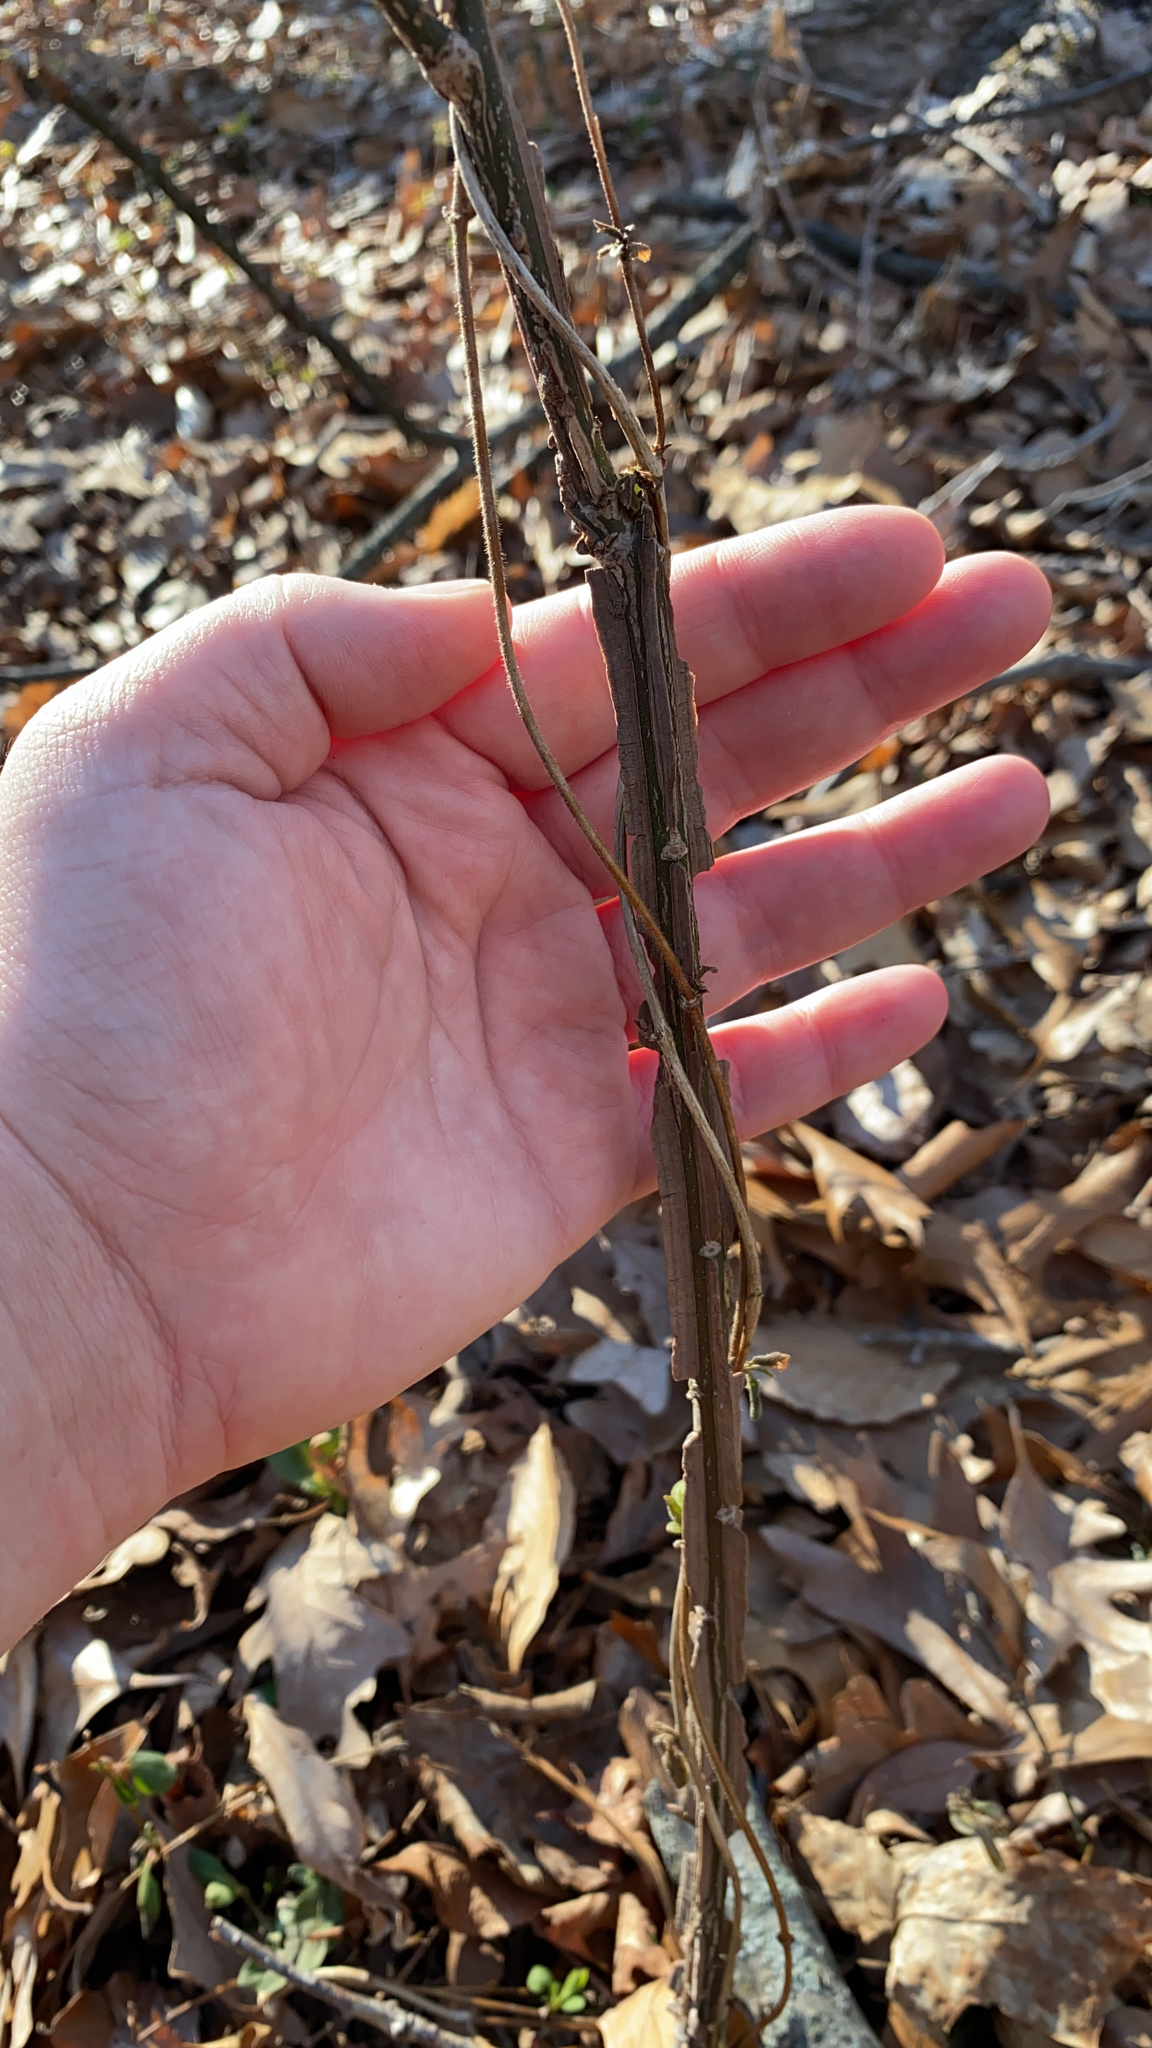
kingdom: Plantae
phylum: Tracheophyta
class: Magnoliopsida
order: Celastrales
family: Celastraceae
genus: Euonymus
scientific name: Euonymus alatus
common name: Winged euonymus
